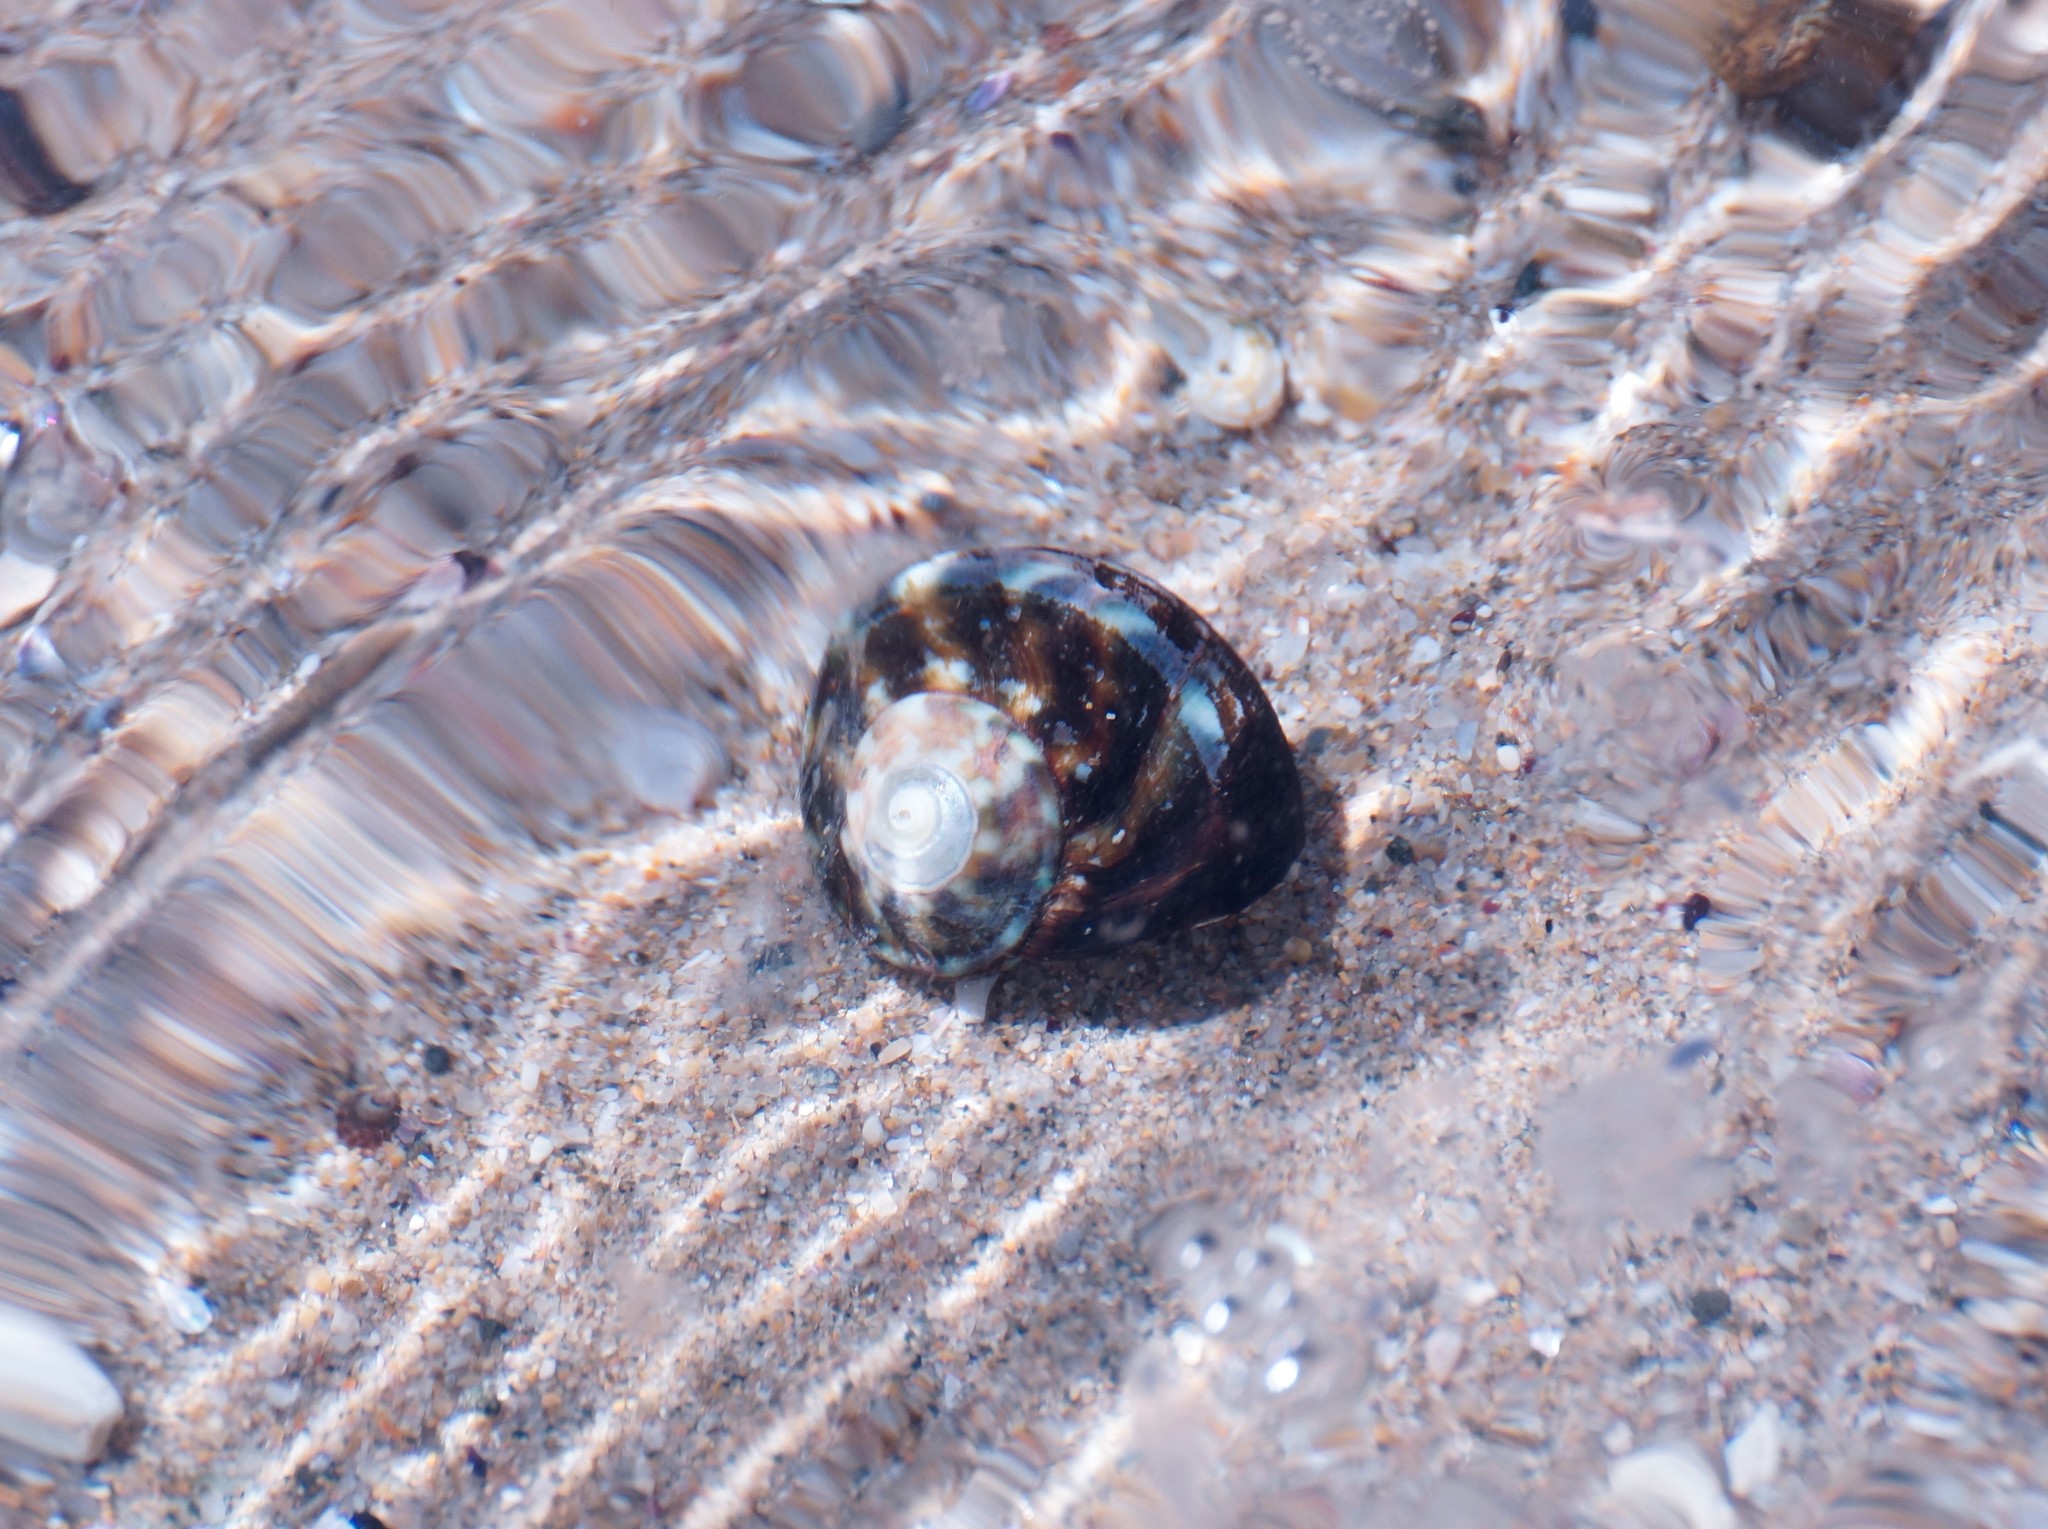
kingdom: Animalia
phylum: Mollusca
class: Gastropoda
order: Trochida
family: Turbinidae
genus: Lunella
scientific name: Lunella undulata
